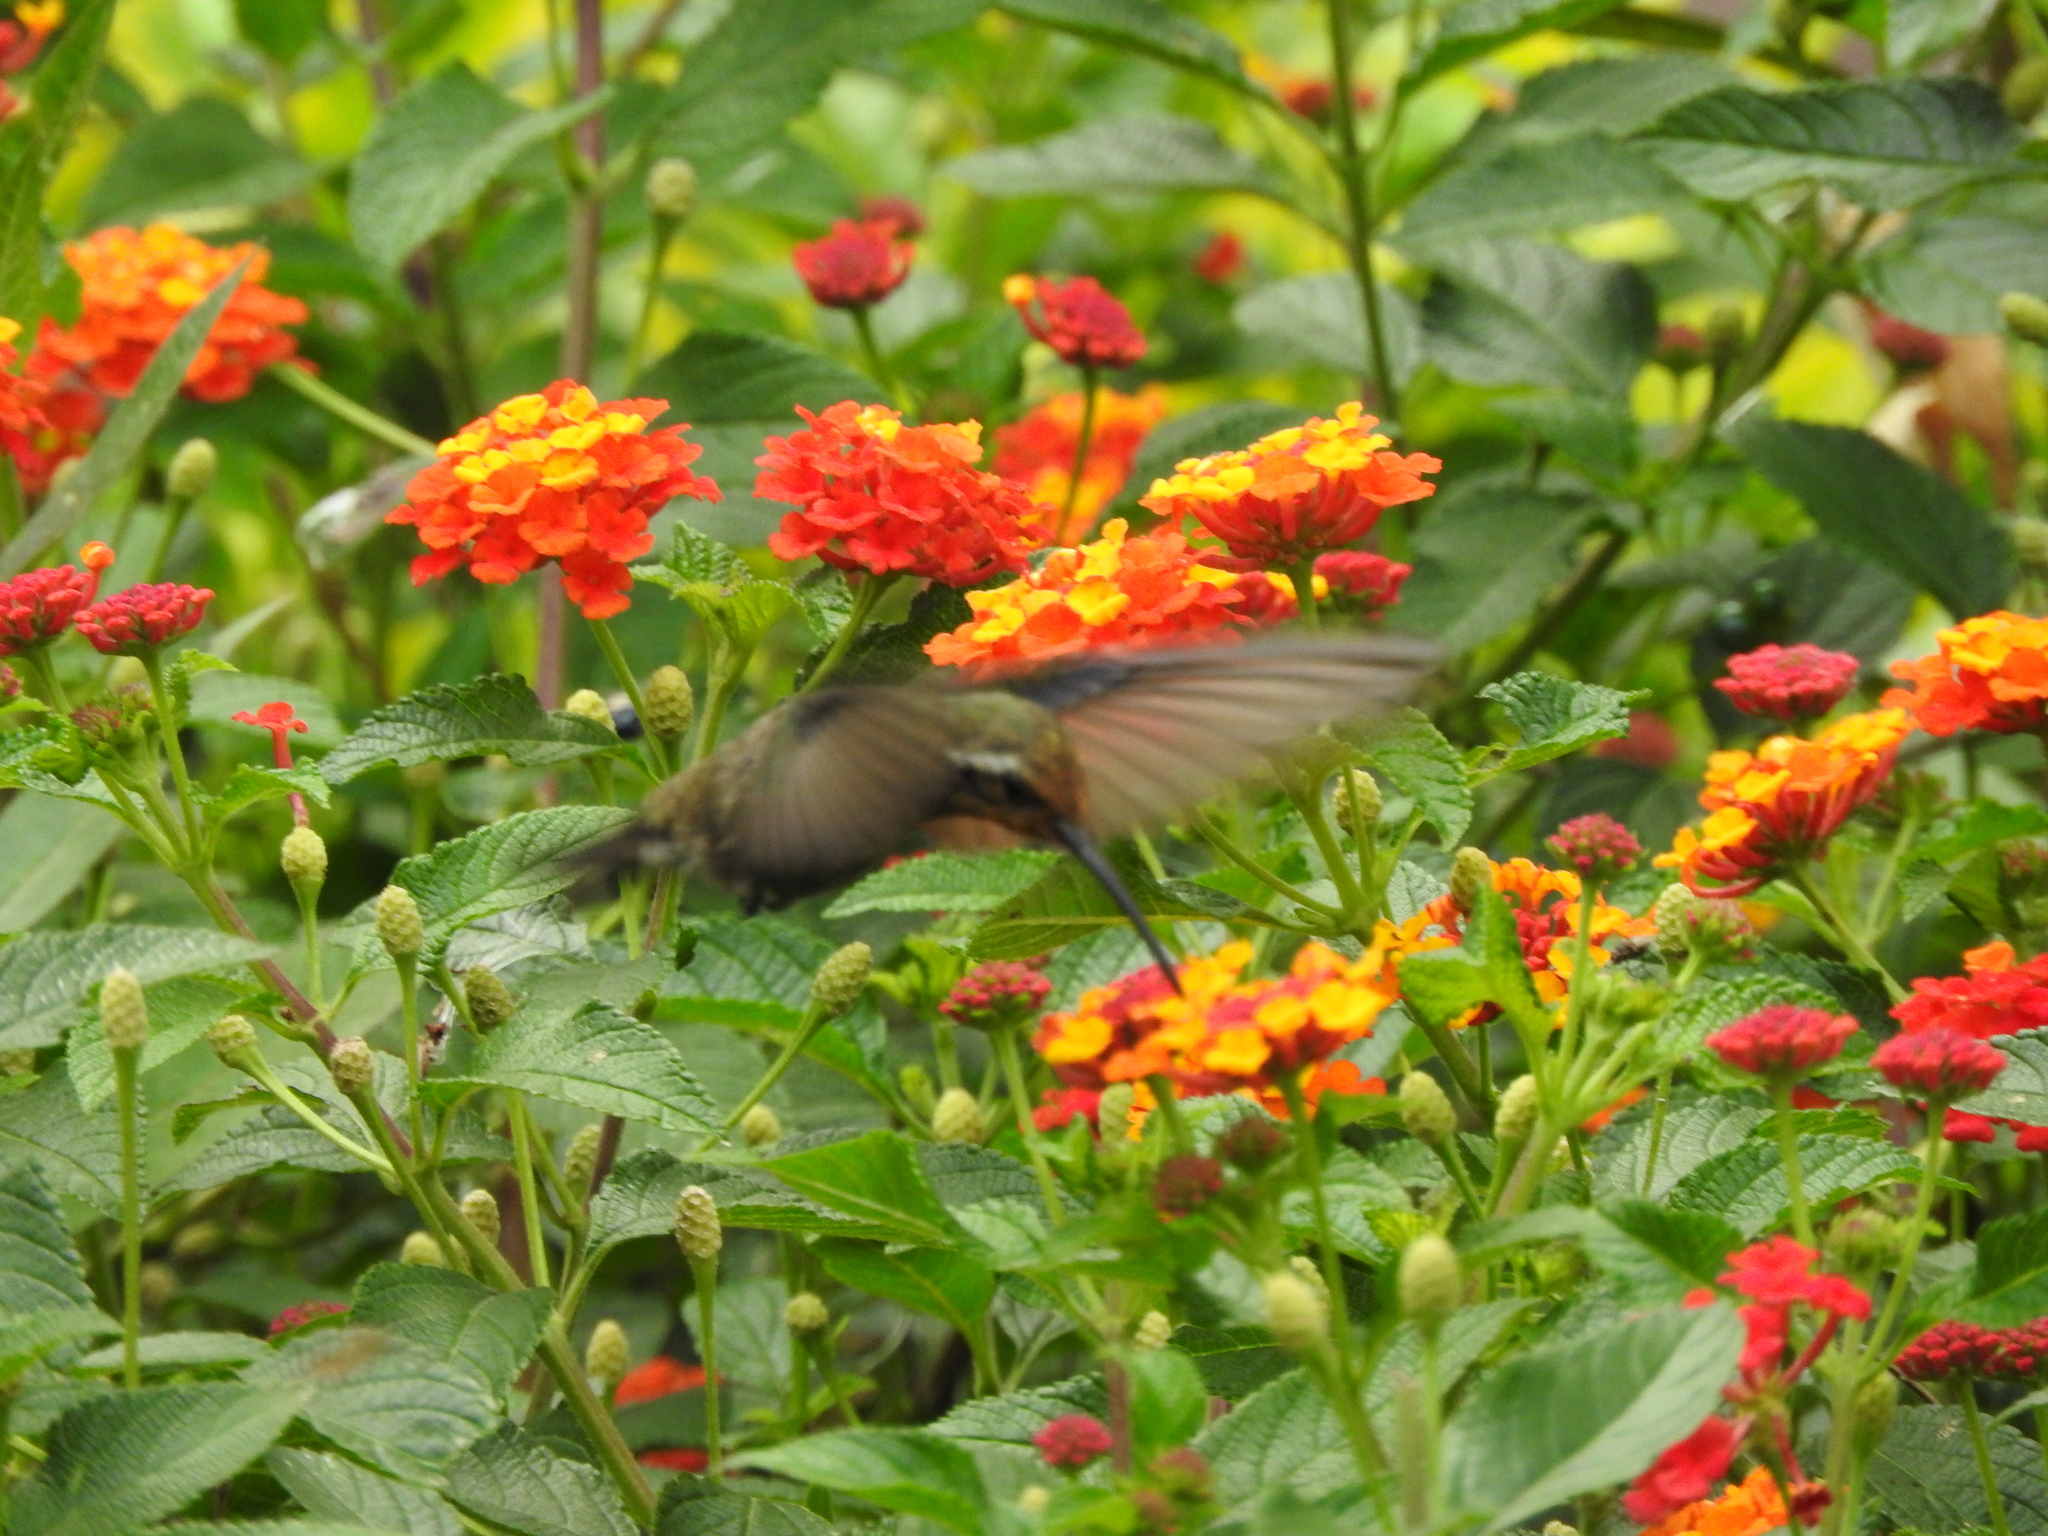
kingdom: Animalia
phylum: Chordata
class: Aves
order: Apodiformes
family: Trochilidae
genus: Cynanthus
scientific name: Cynanthus latirostris
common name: Broad-billed hummingbird
